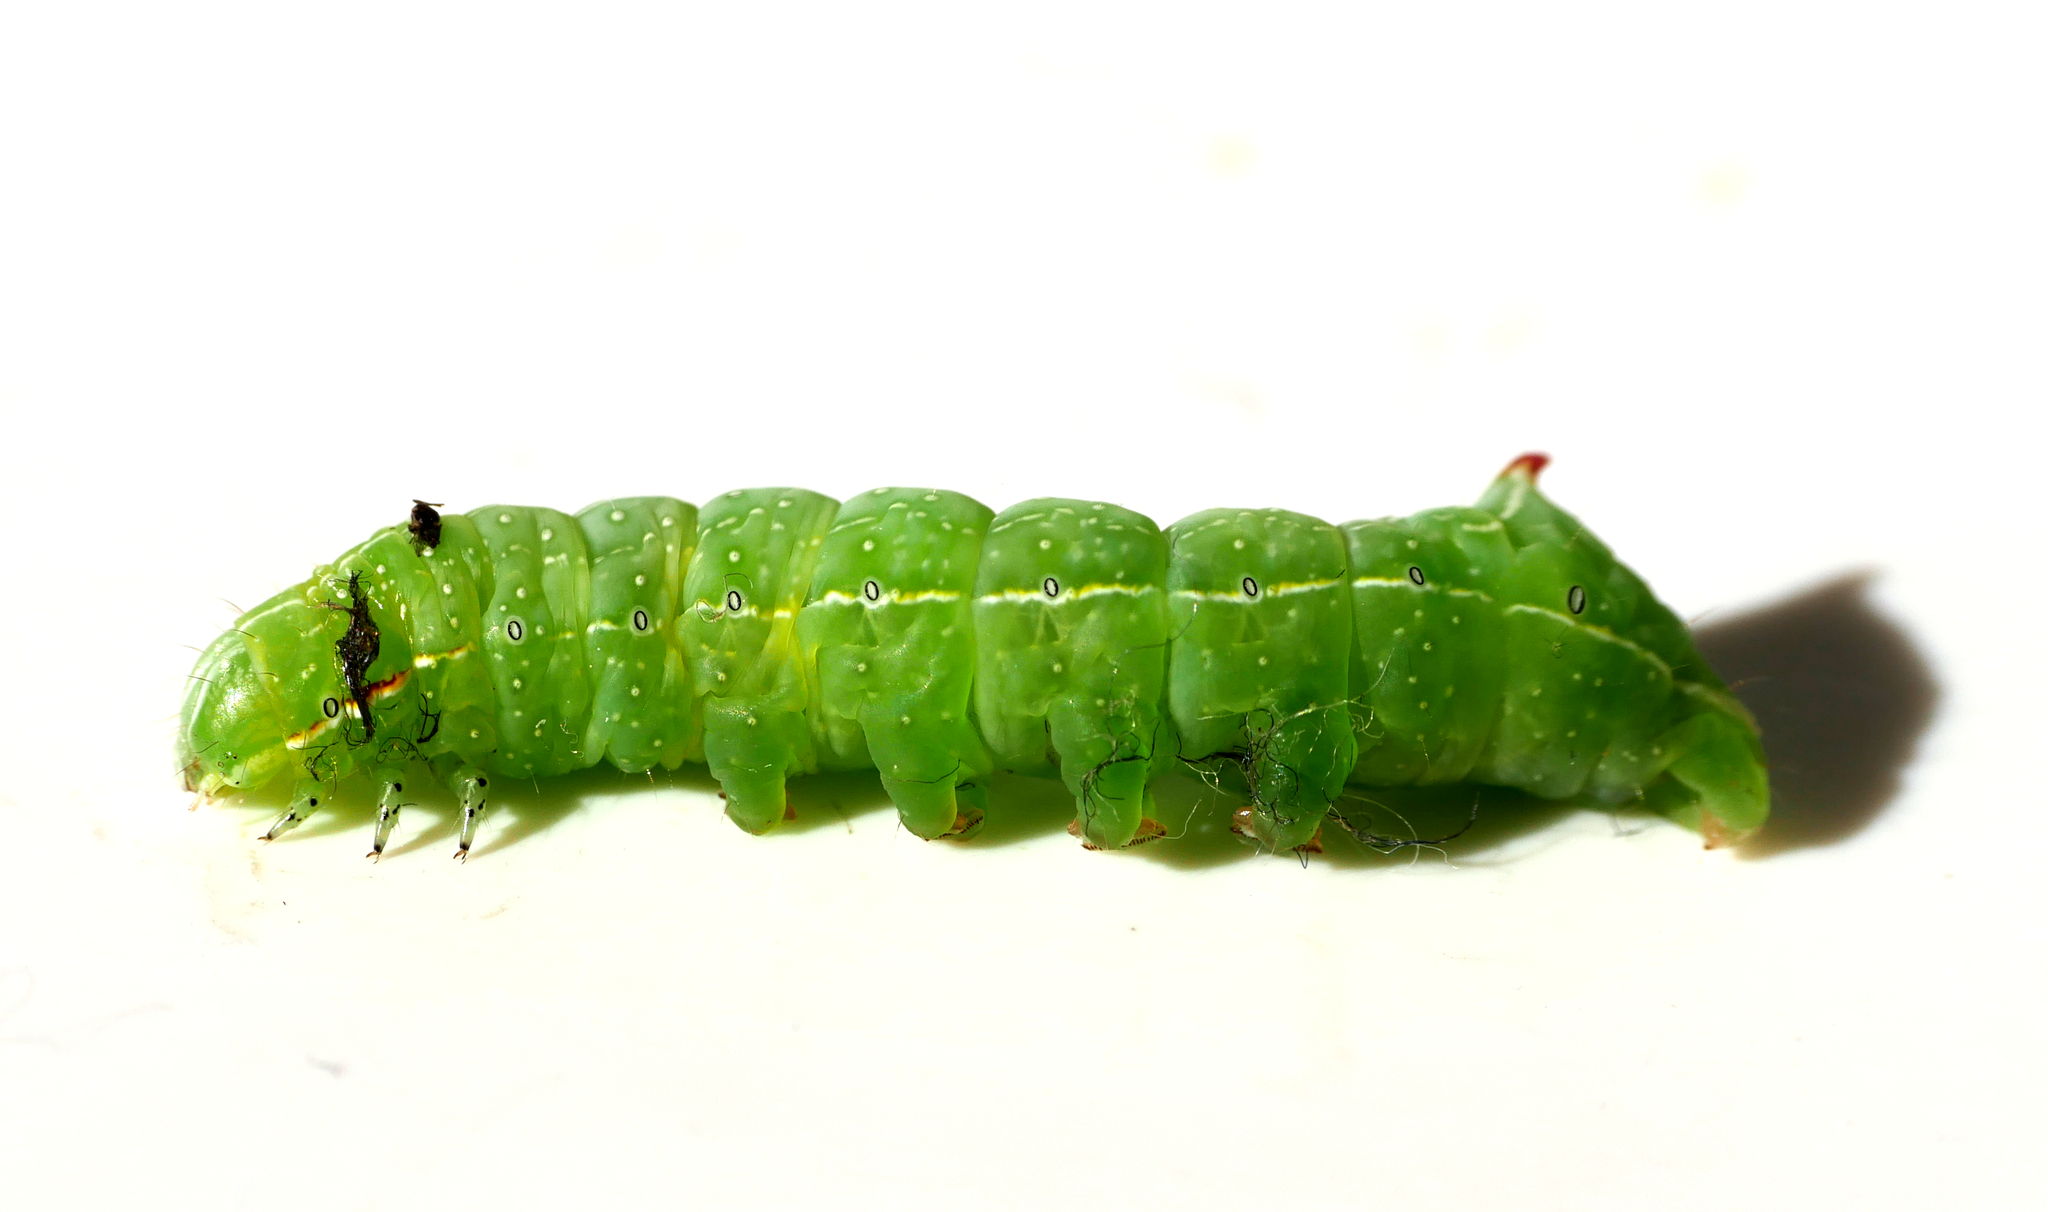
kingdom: Animalia
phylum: Arthropoda
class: Insecta
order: Lepidoptera
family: Noctuidae
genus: Amphipyra
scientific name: Amphipyra berbera
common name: Svensson's copper underwing
